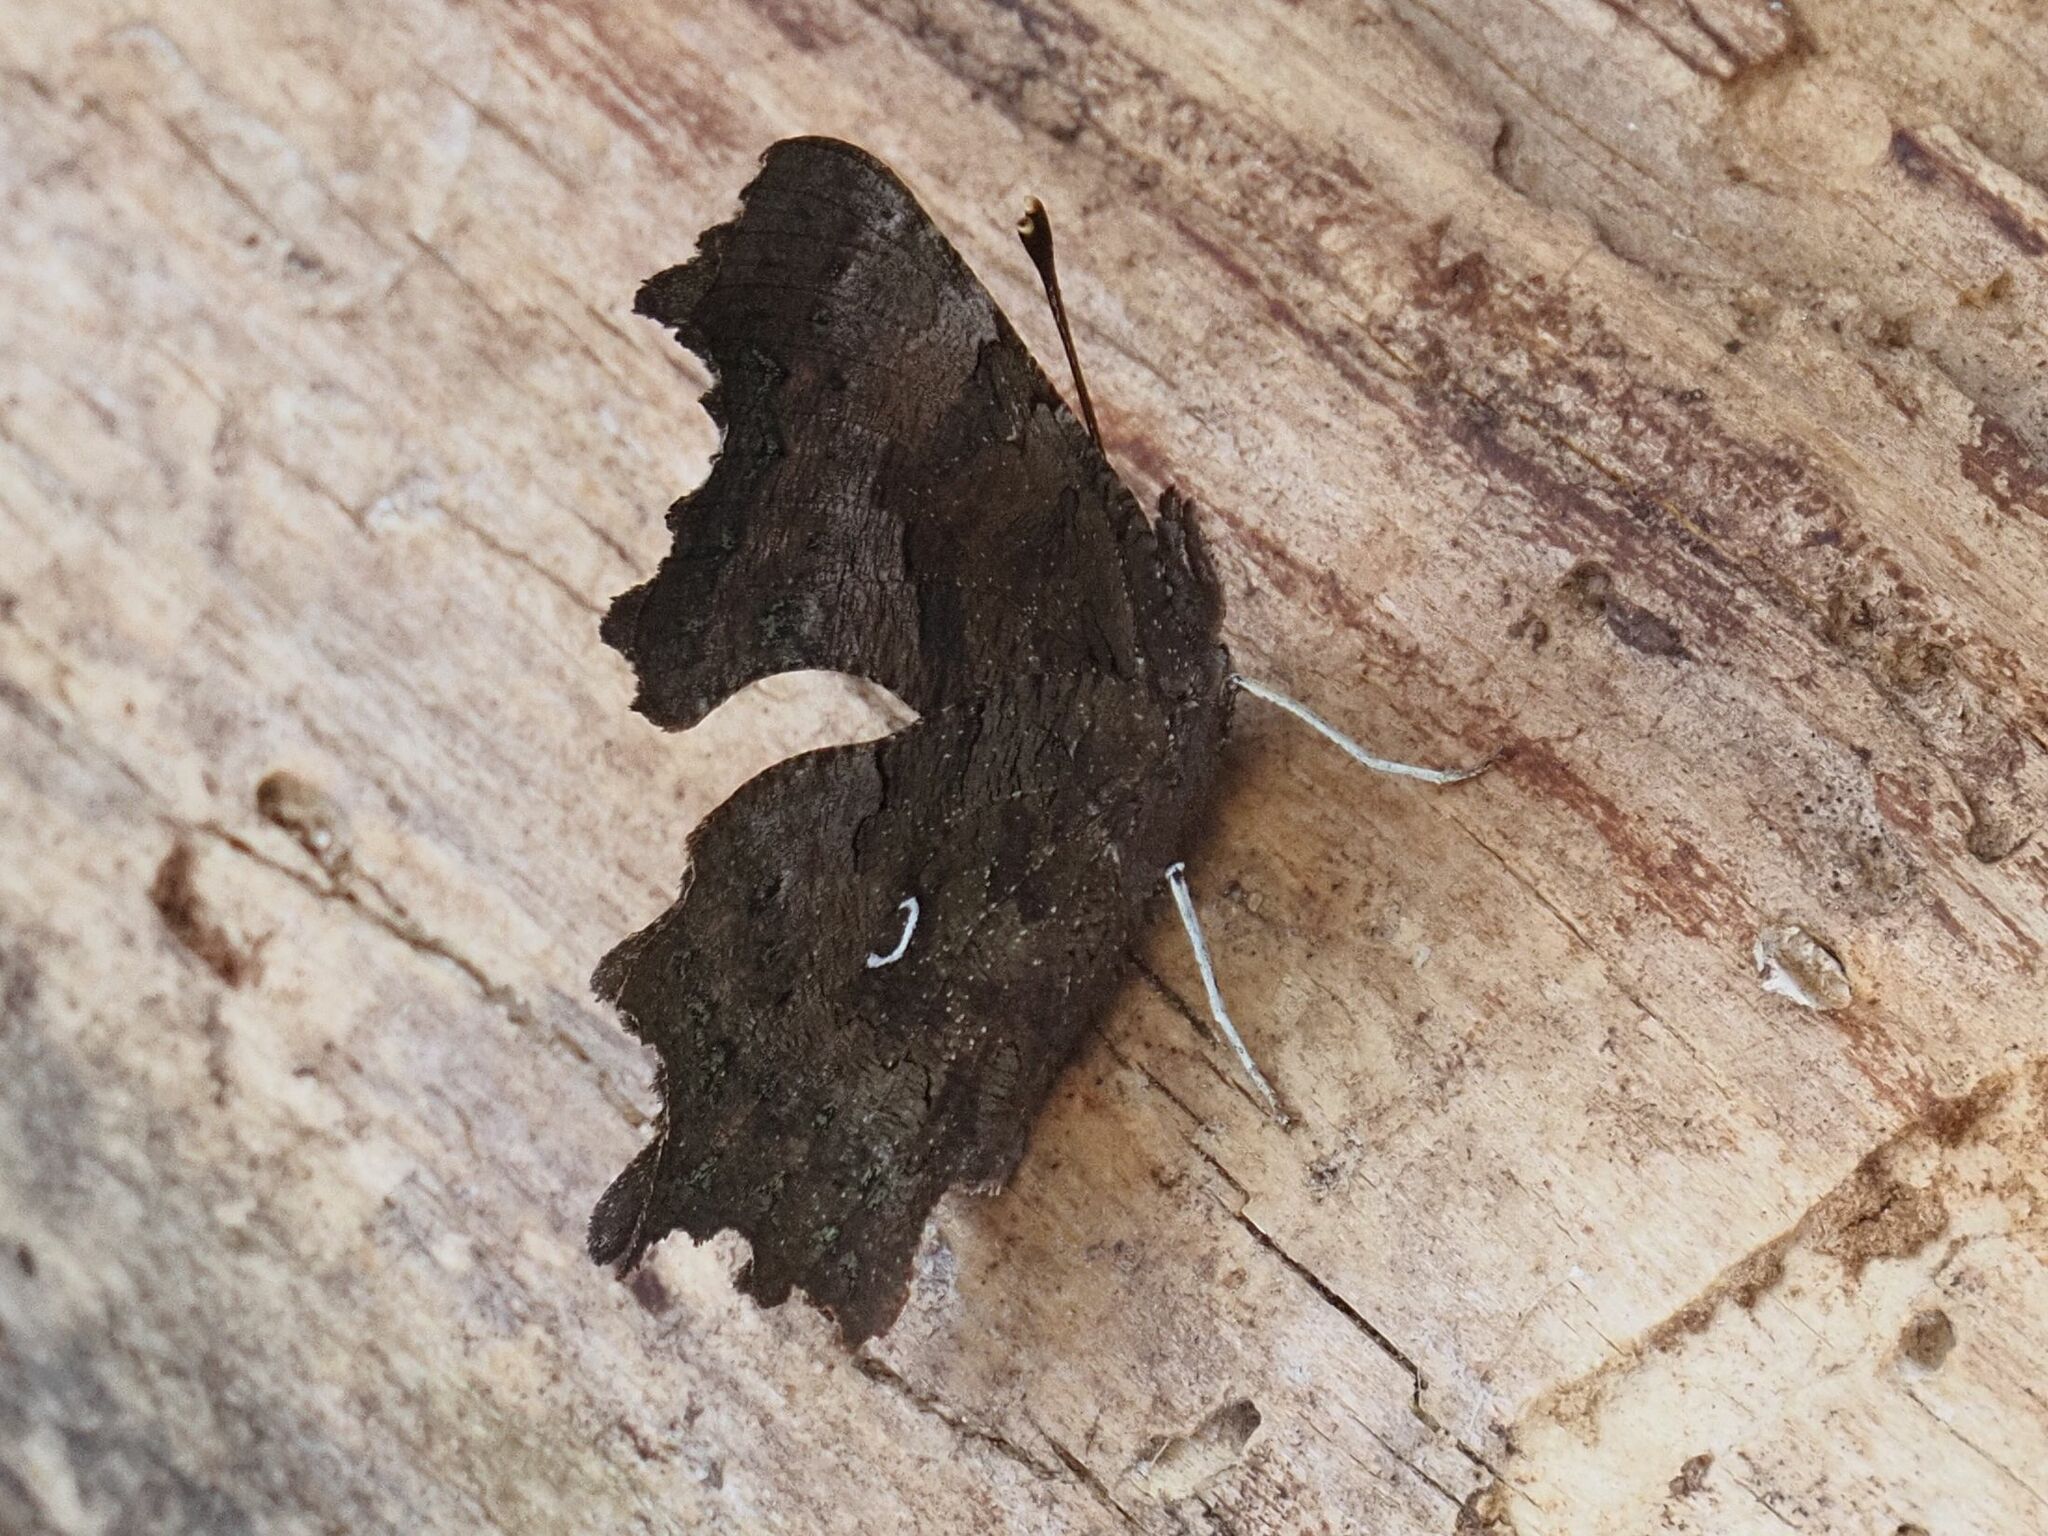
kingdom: Animalia
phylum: Arthropoda
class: Insecta
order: Lepidoptera
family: Nymphalidae
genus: Polygonia
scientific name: Polygonia c-album
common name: Comma
